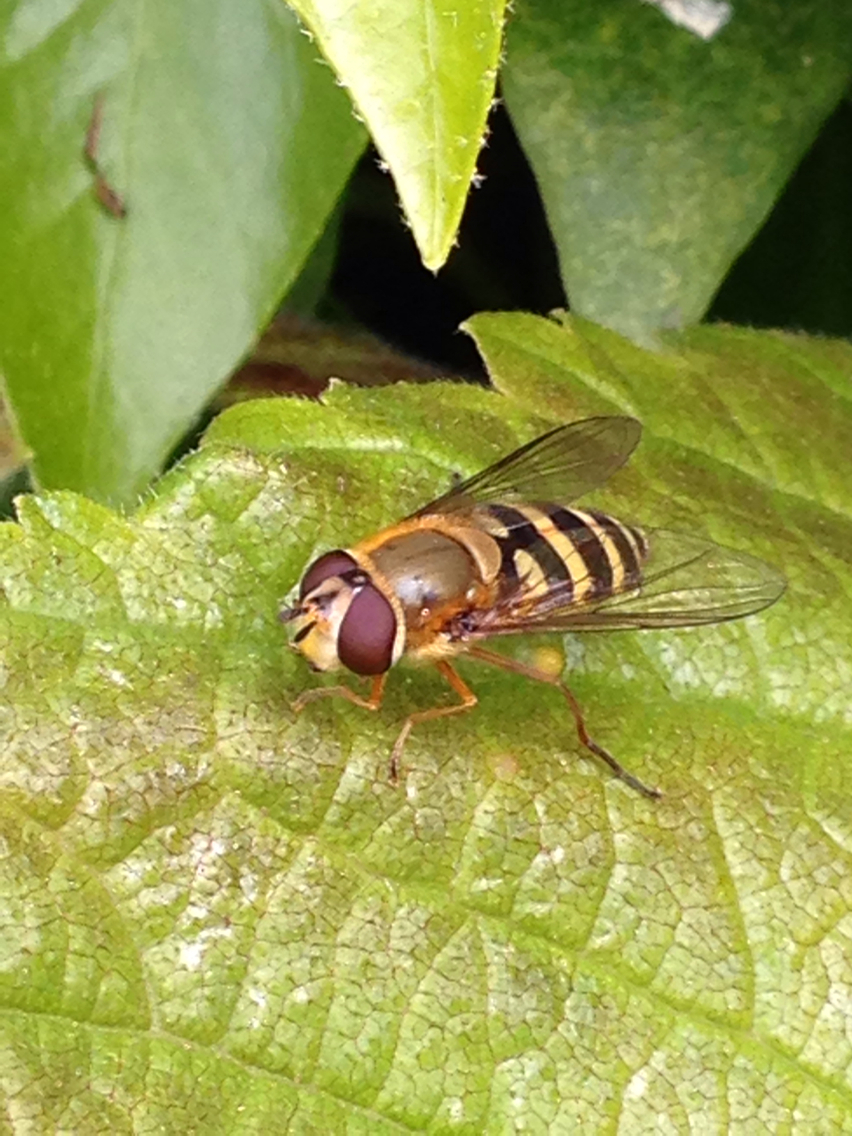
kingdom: Animalia
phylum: Arthropoda
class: Insecta
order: Diptera
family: Syrphidae
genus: Syrphus
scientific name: Syrphus ribesii
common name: Common flower fly
